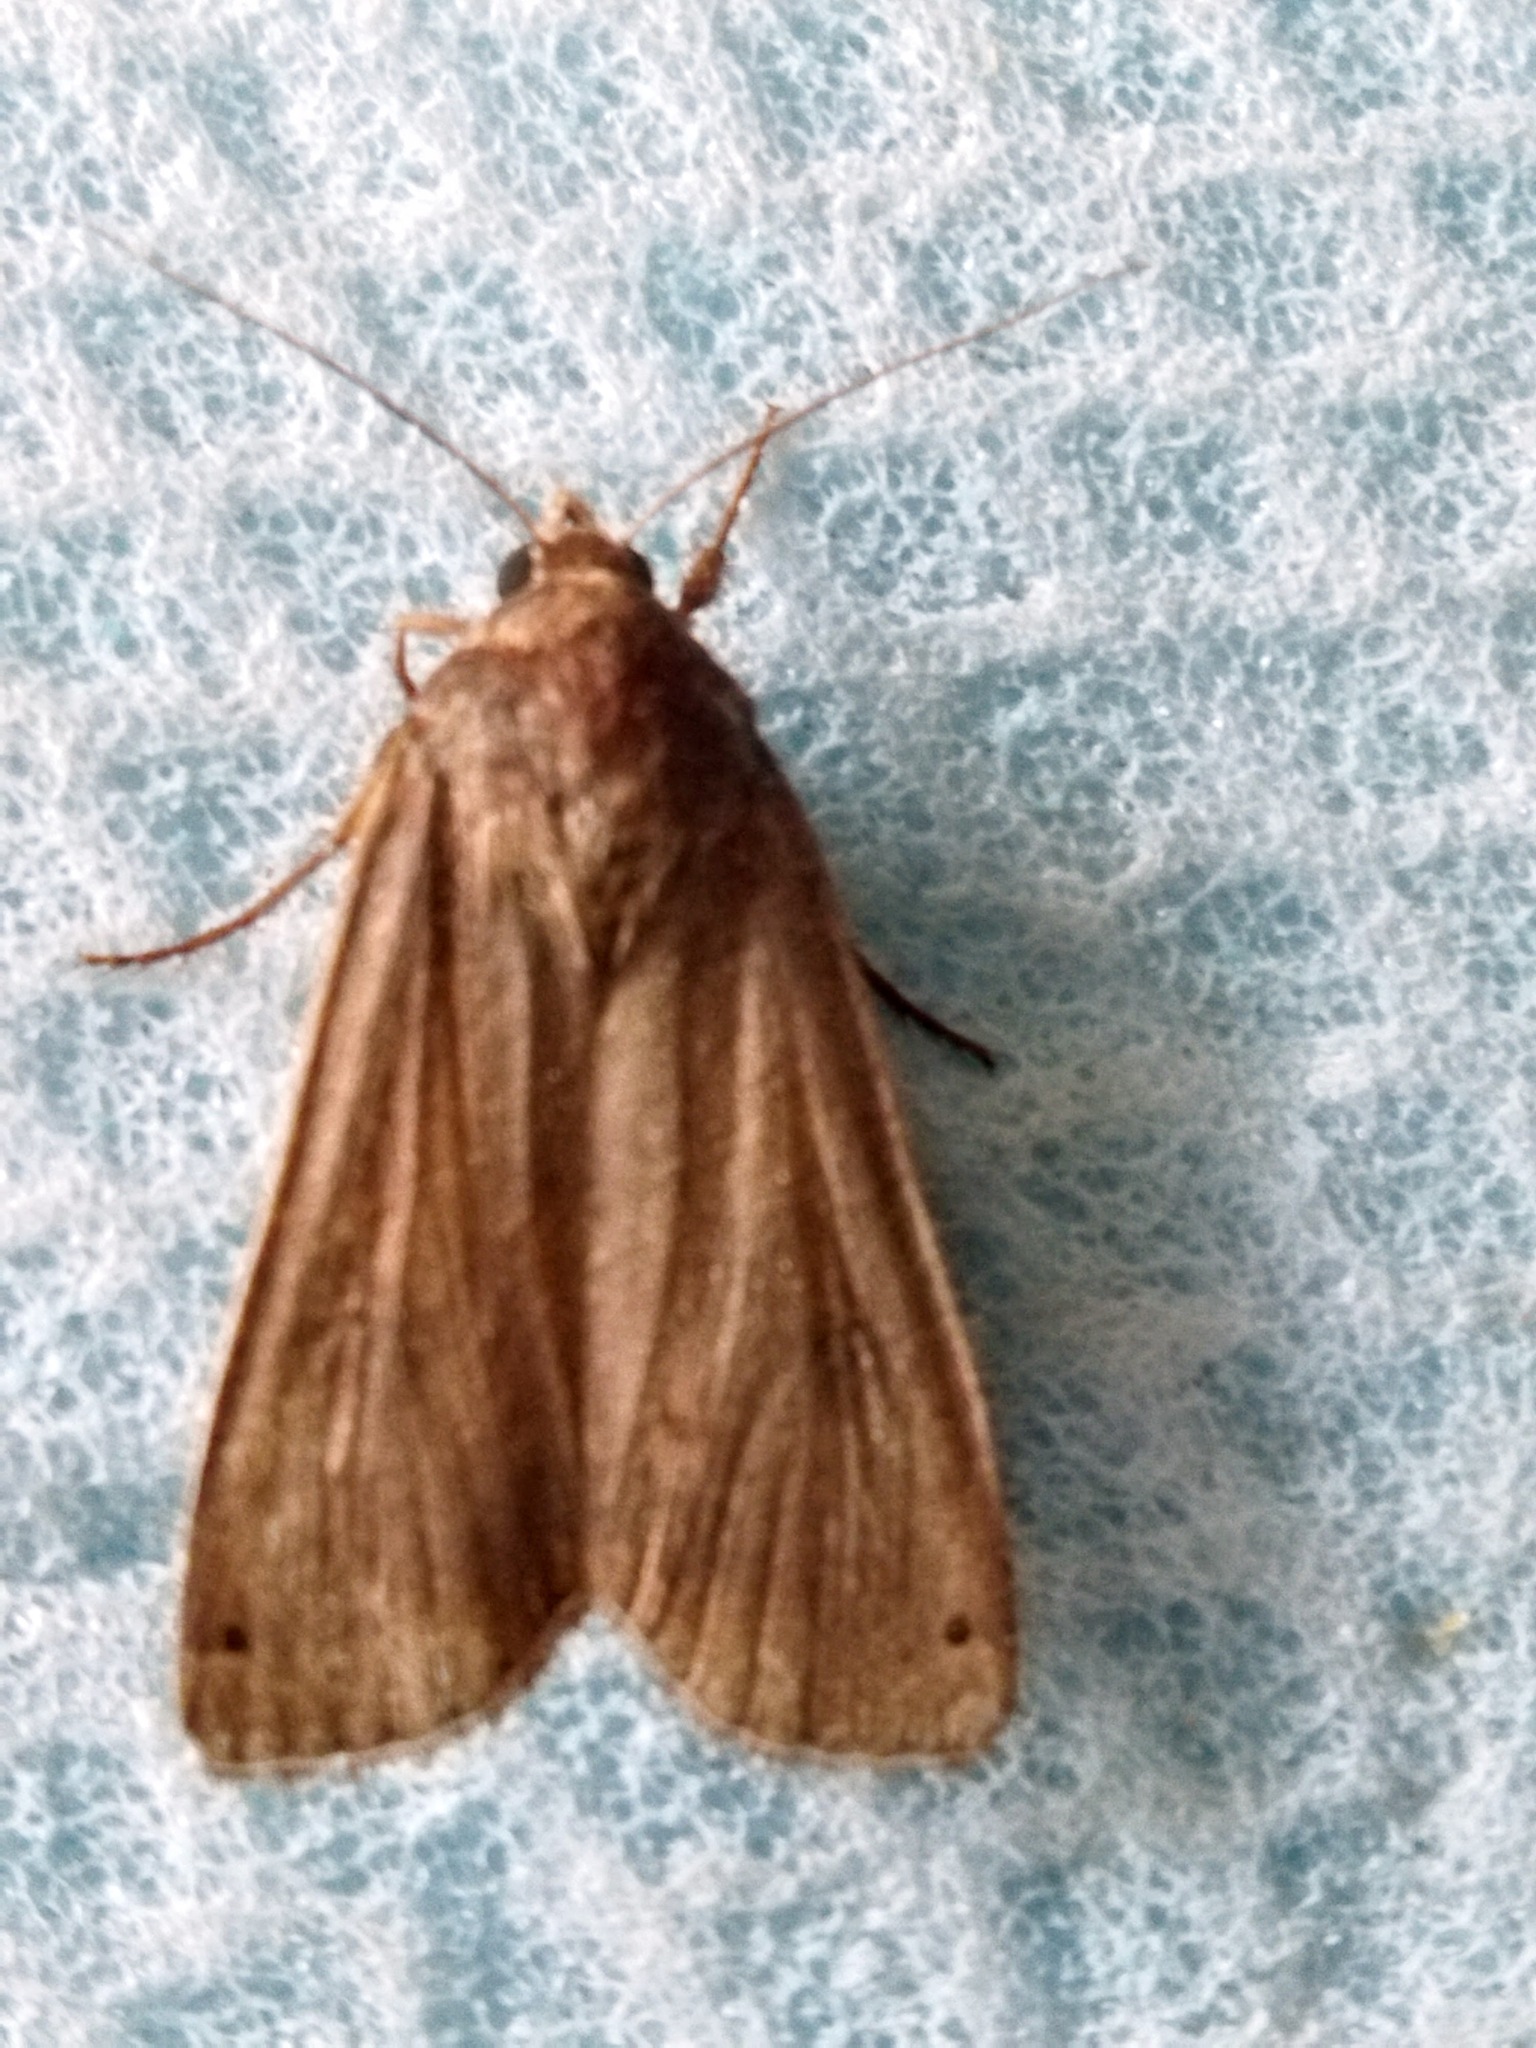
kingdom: Animalia
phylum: Arthropoda
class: Insecta
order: Lepidoptera
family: Noctuidae
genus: Noctua
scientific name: Noctua pronuba
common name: Large yellow underwing
